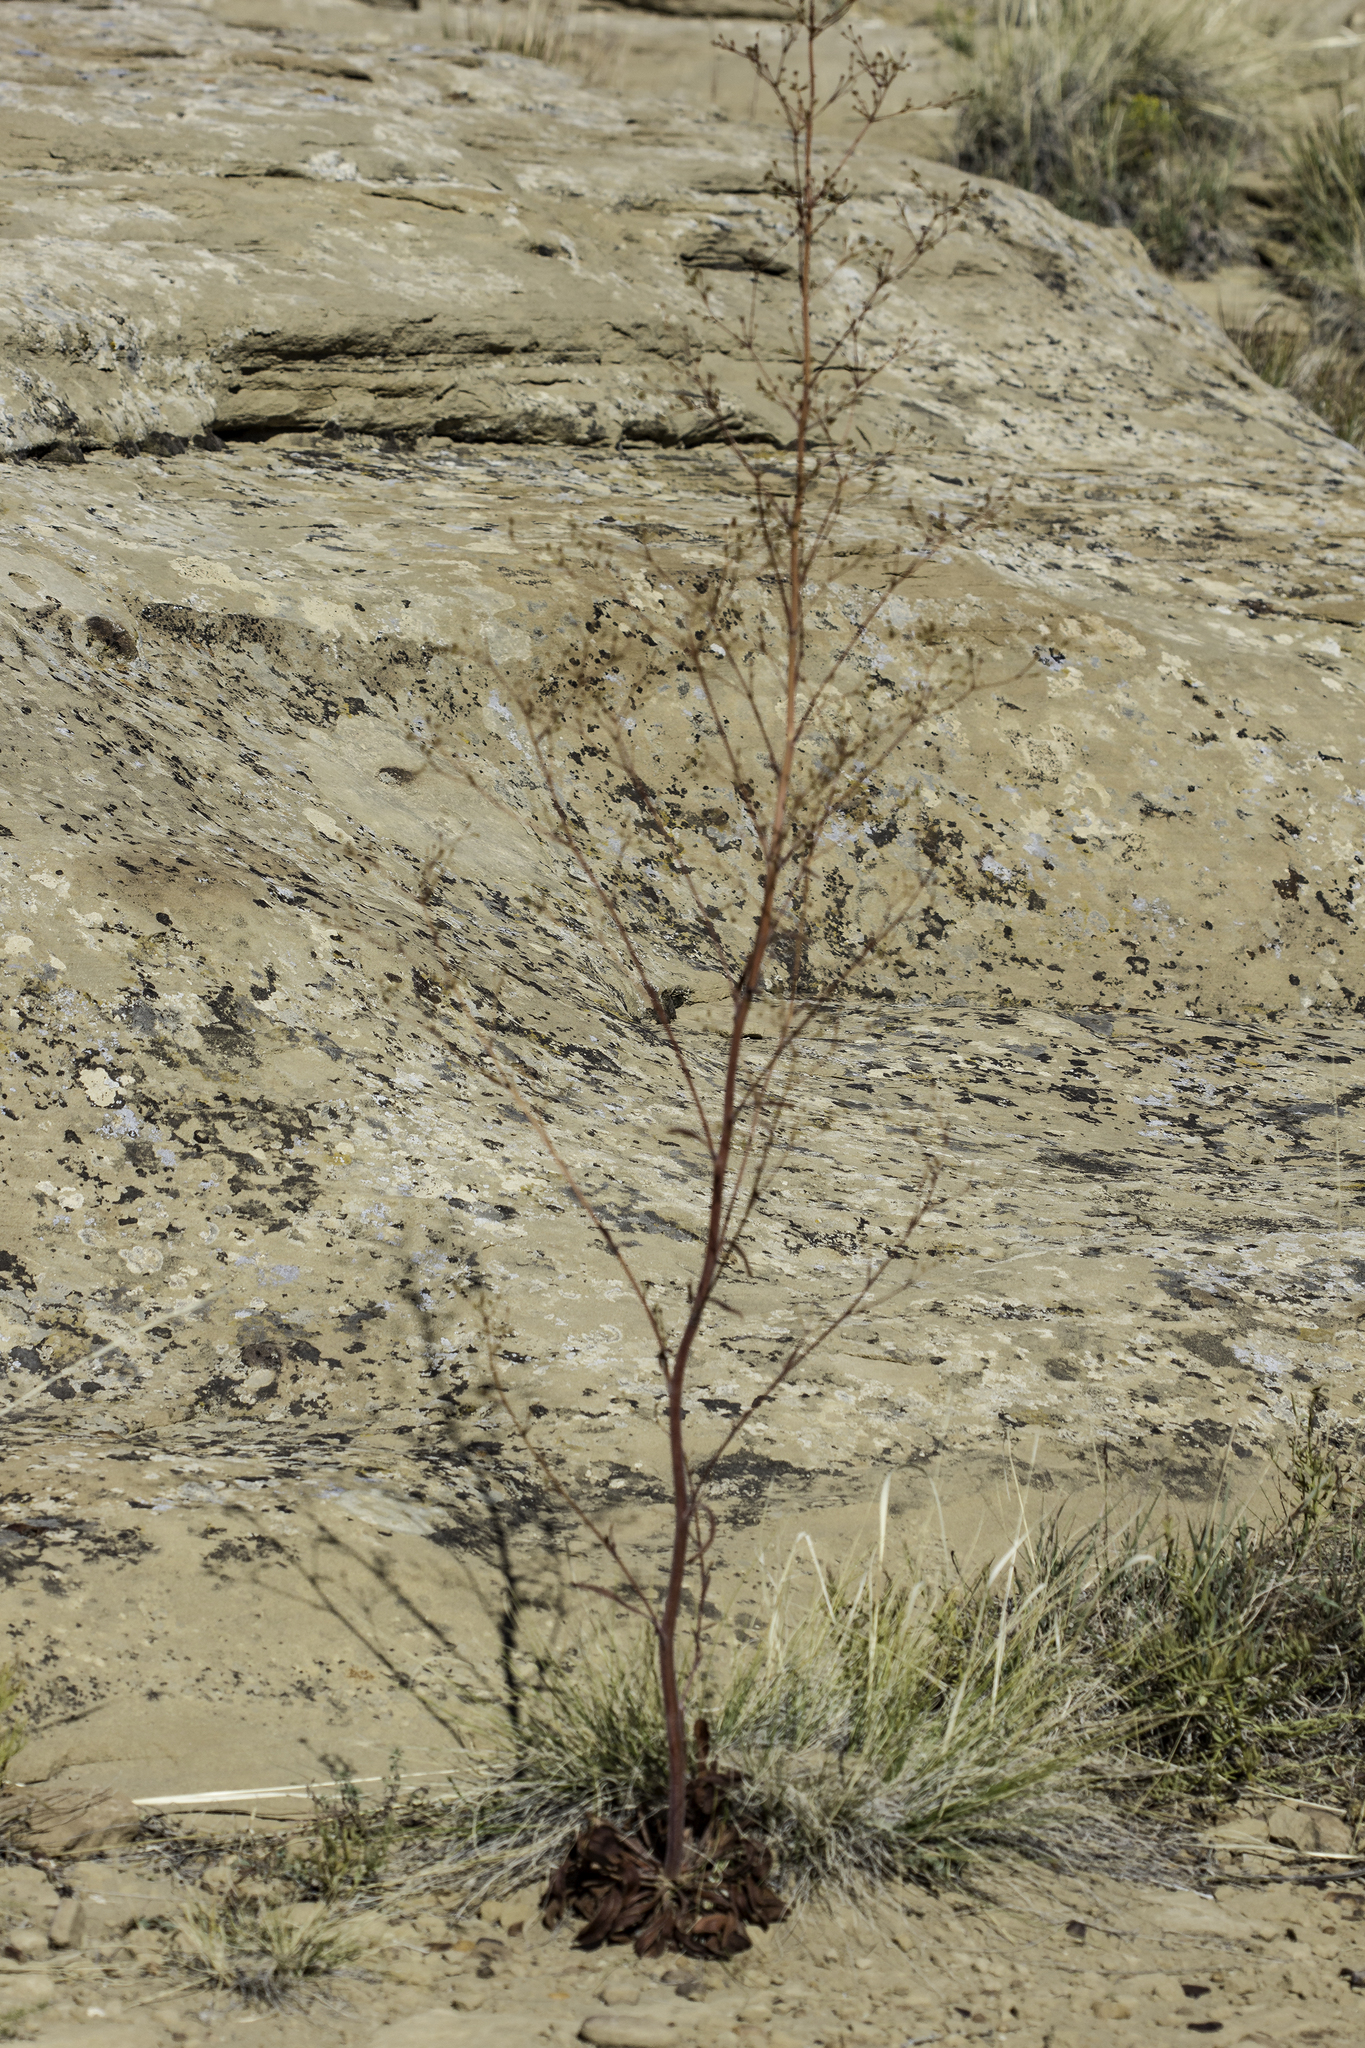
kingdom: Plantae
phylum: Tracheophyta
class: Magnoliopsida
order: Caryophyllales
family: Polygonaceae
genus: Eriogonum
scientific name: Eriogonum alatum
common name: Winged eriogonum
